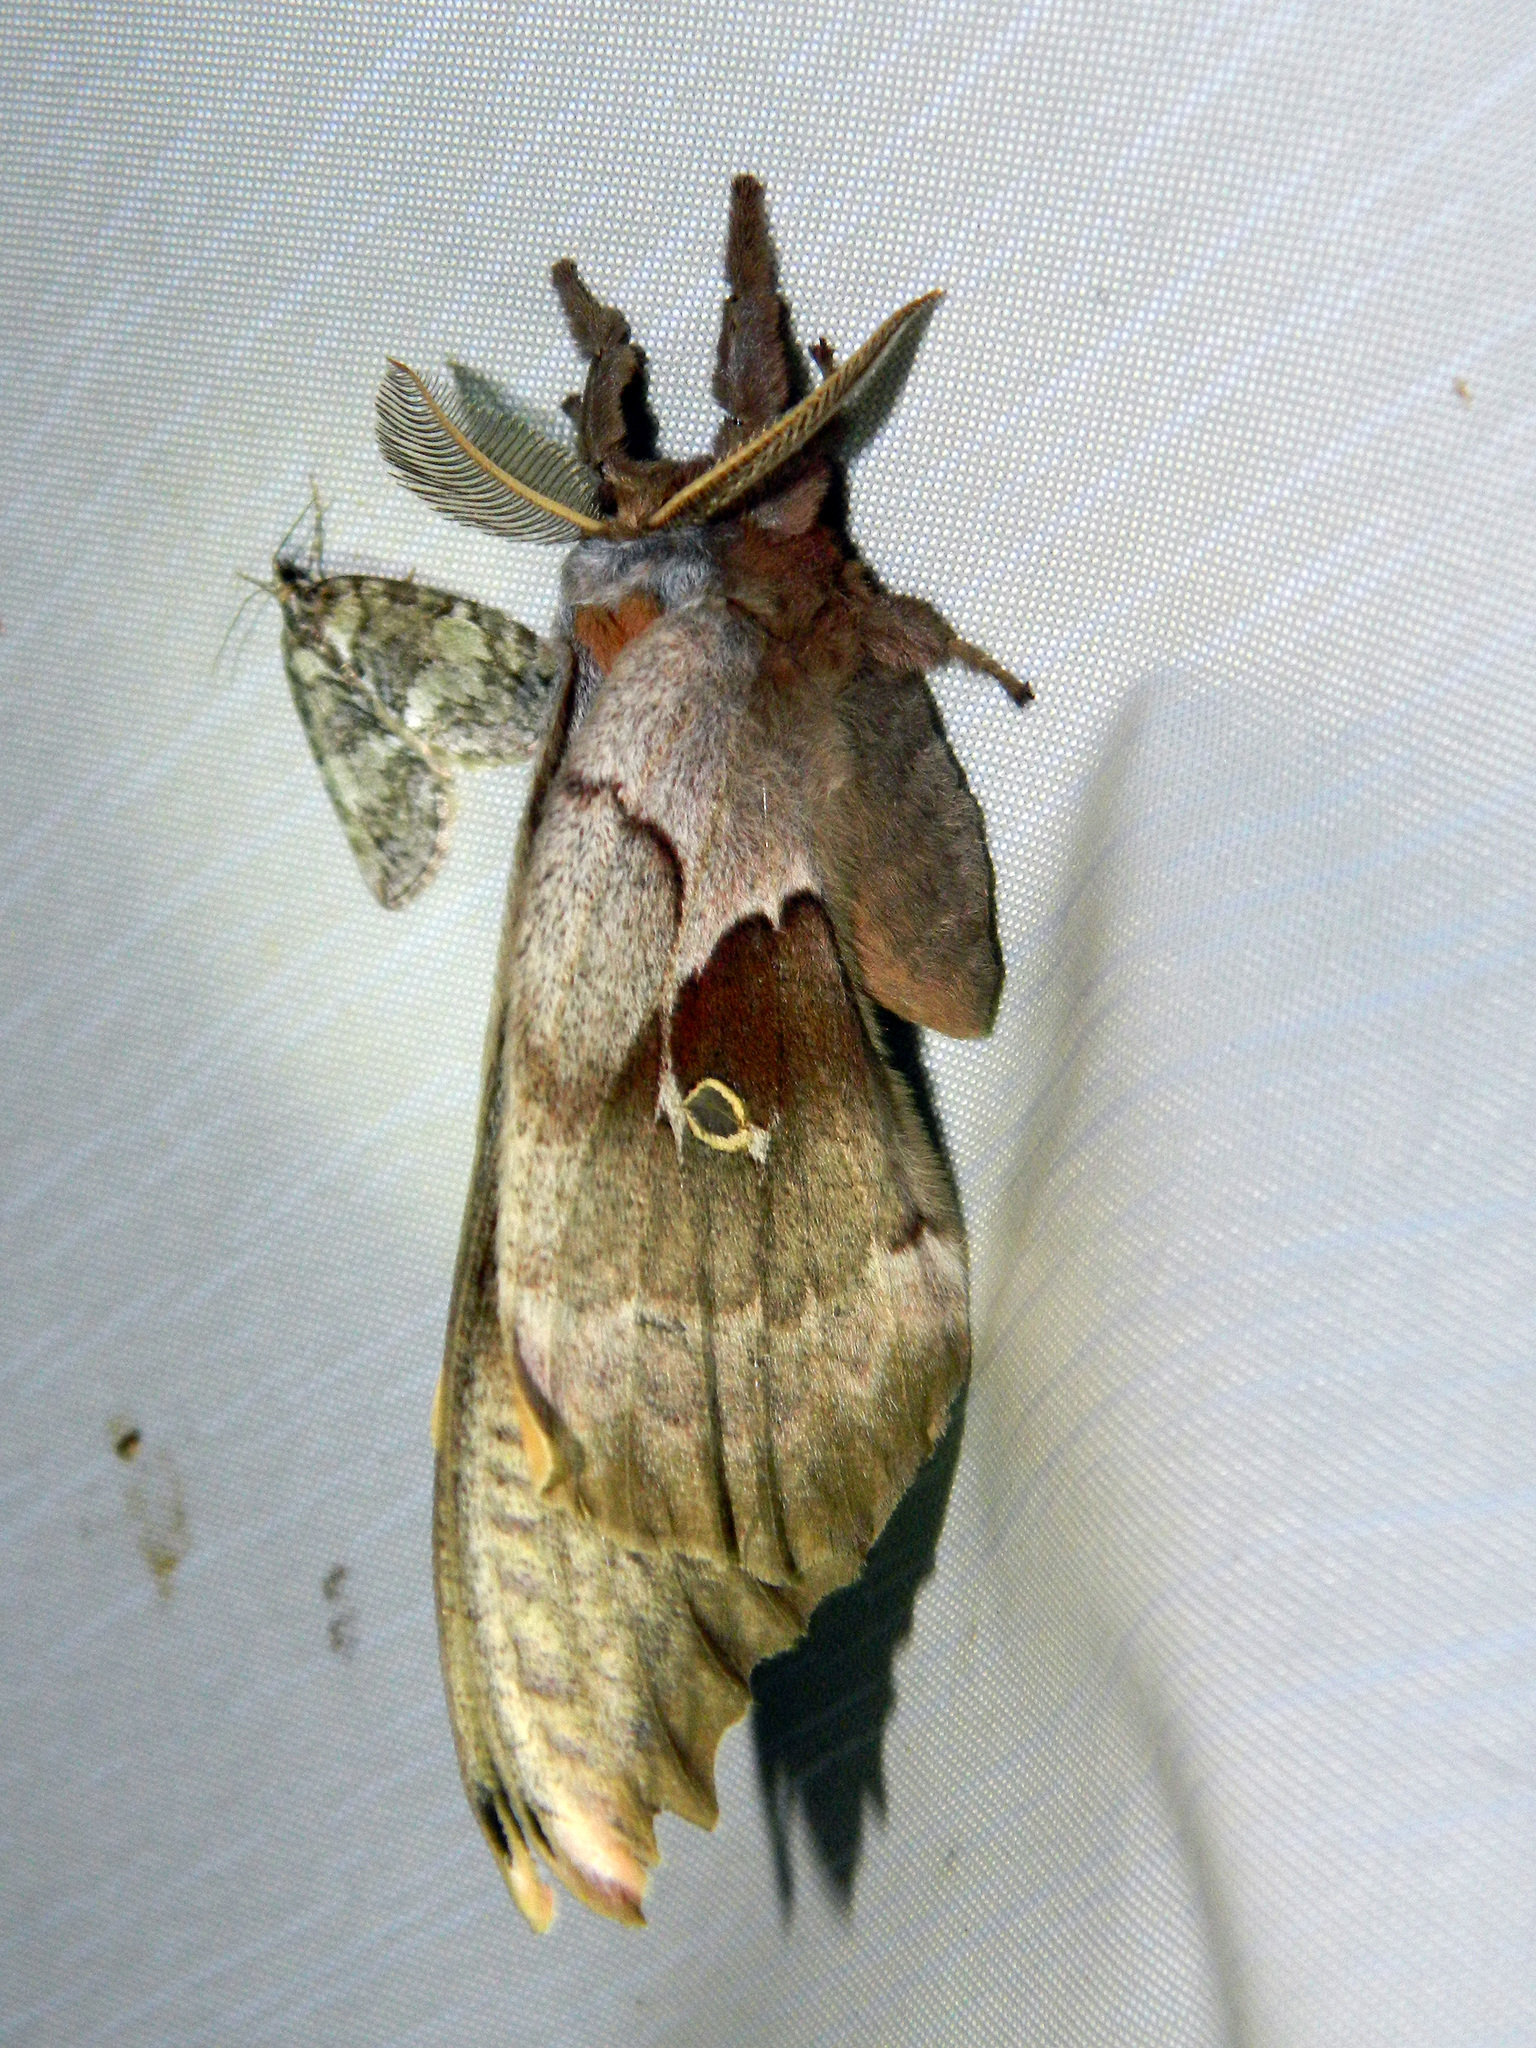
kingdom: Animalia
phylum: Arthropoda
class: Insecta
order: Lepidoptera
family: Saturniidae
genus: Antheraea
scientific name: Antheraea polyphemus
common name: Polyphemus moth
